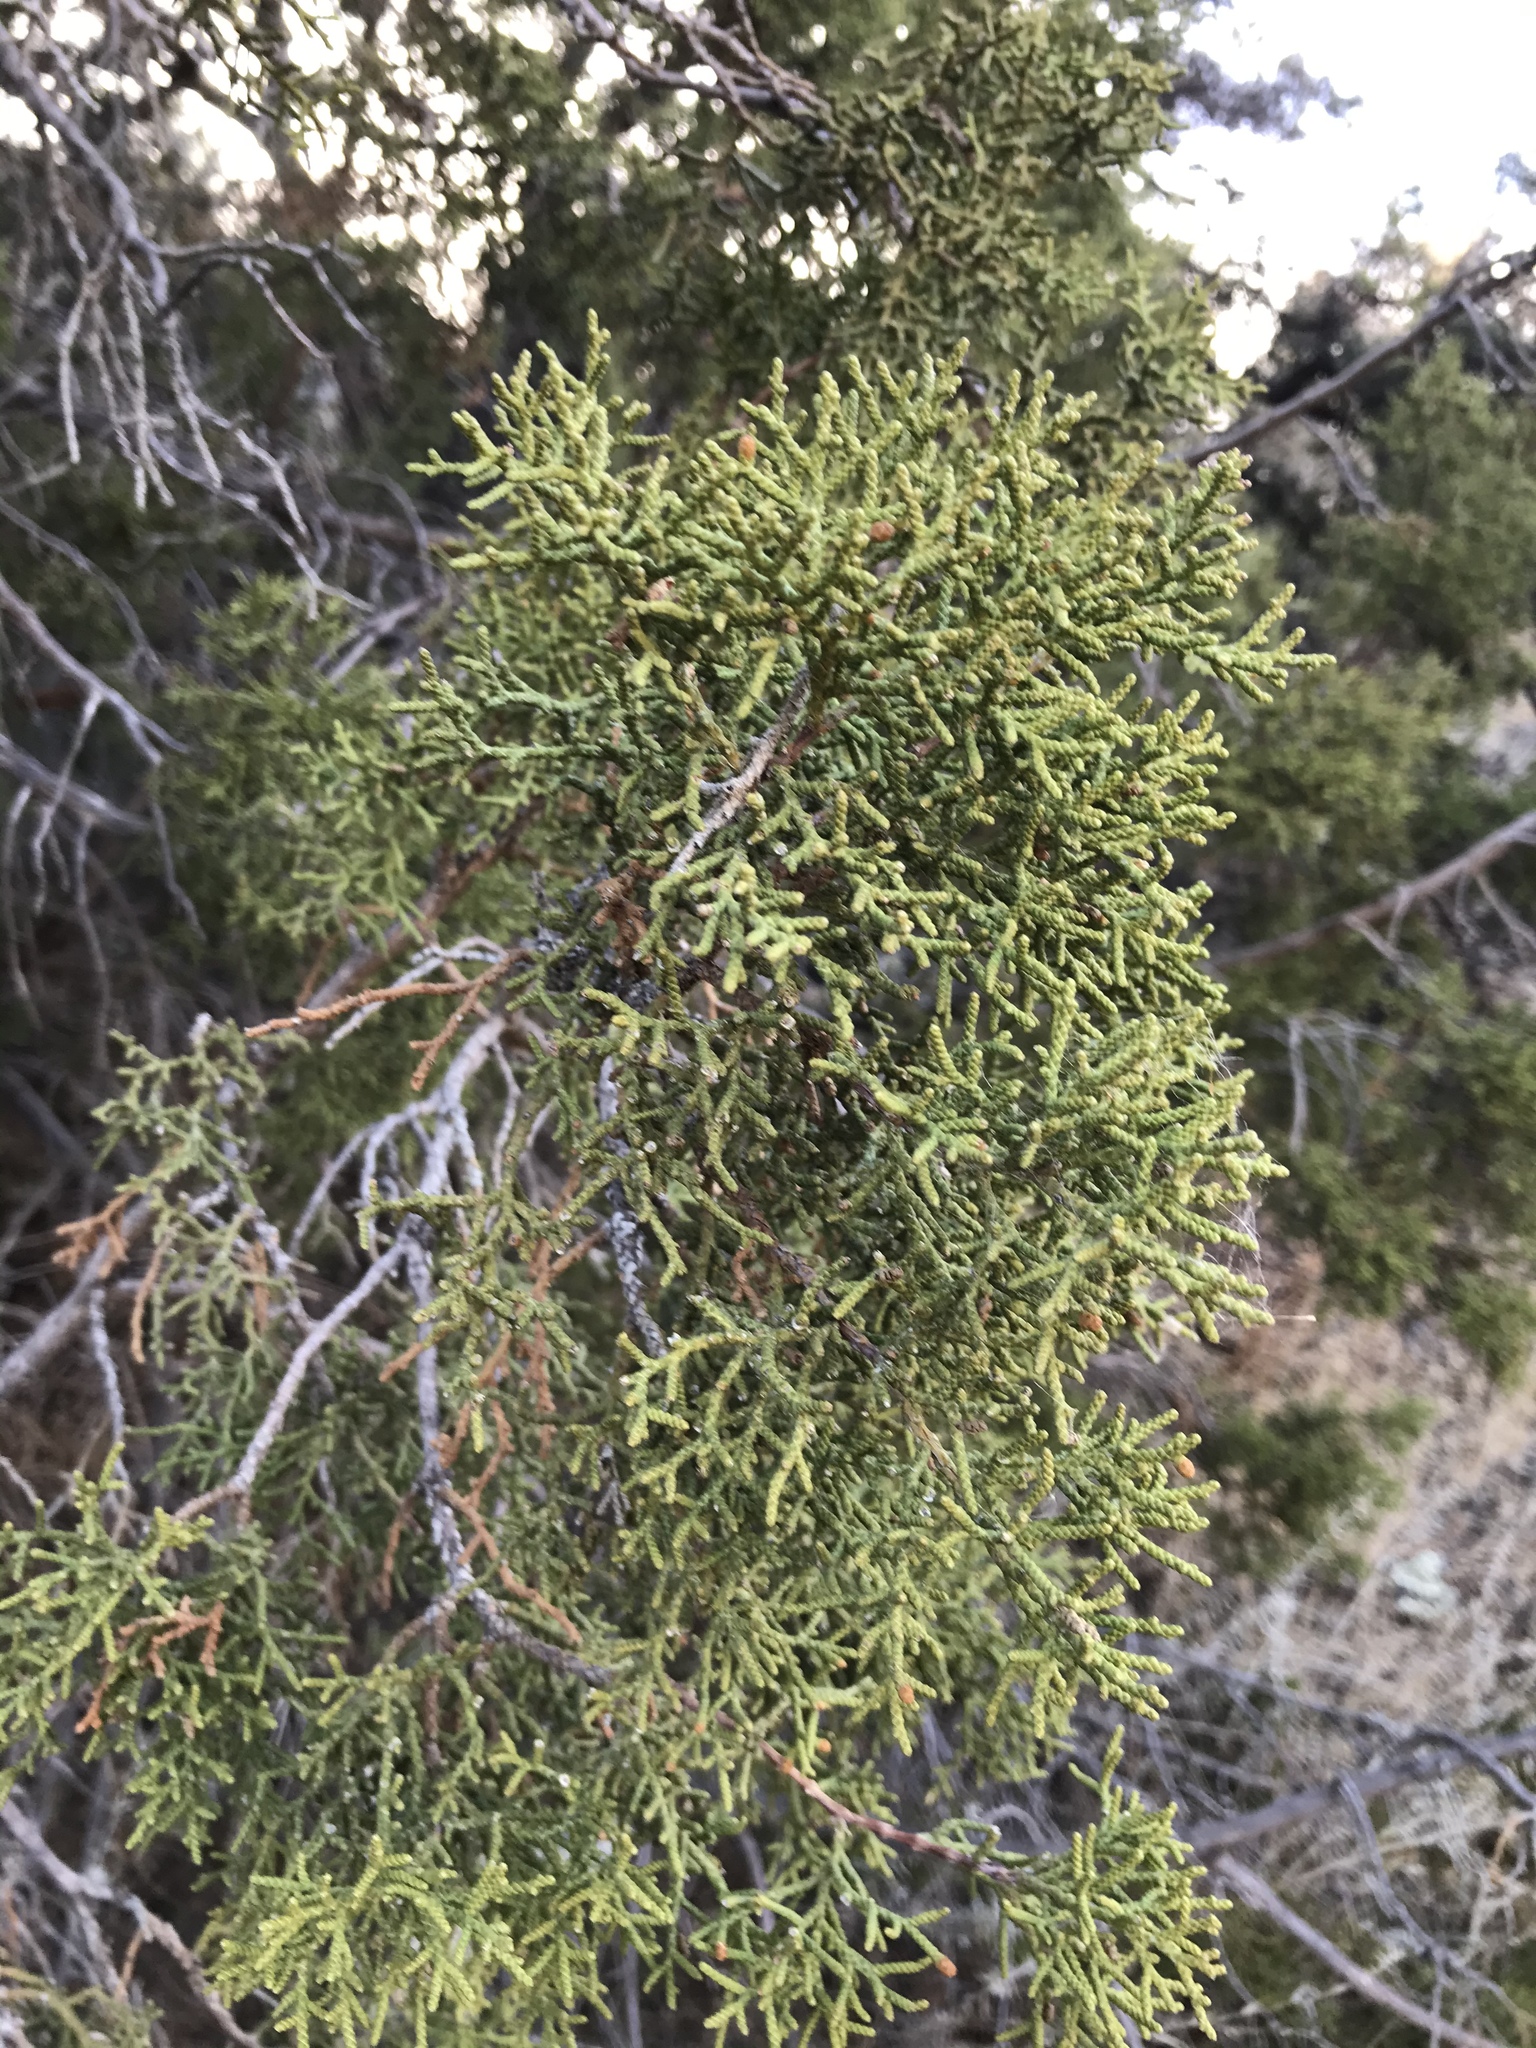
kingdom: Plantae
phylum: Tracheophyta
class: Pinopsida
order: Pinales
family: Cupressaceae
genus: Juniperus
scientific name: Juniperus californica
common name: California juniper
